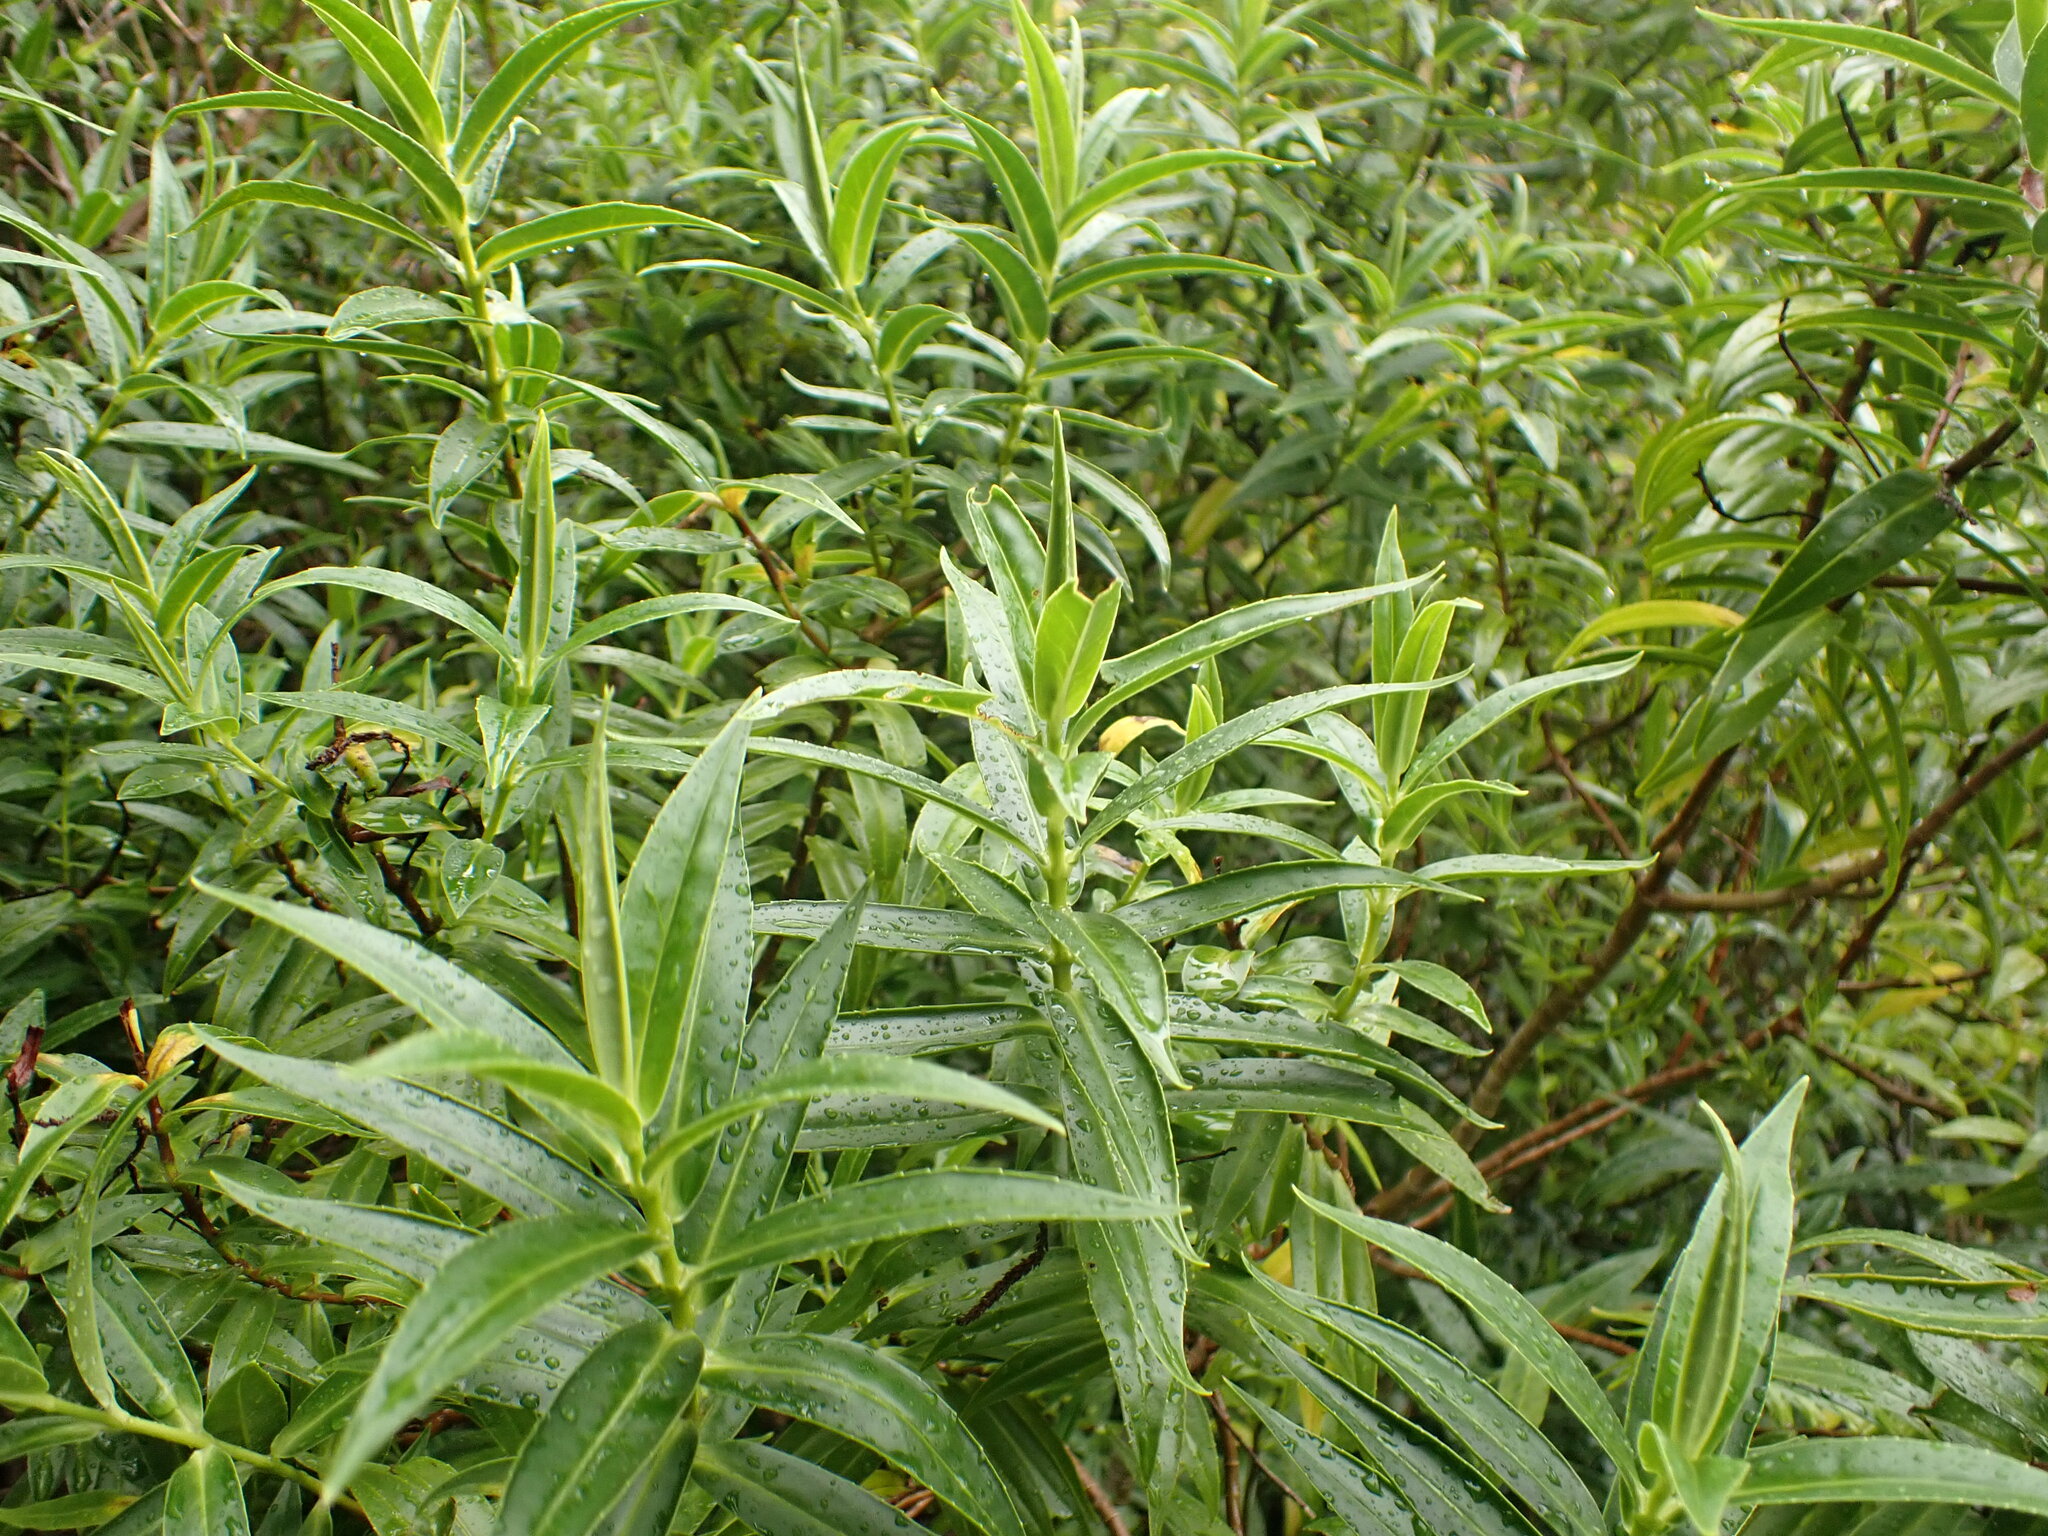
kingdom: Plantae
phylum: Tracheophyta
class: Magnoliopsida
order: Lamiales
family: Plantaginaceae
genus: Veronica
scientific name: Veronica salicifolia
